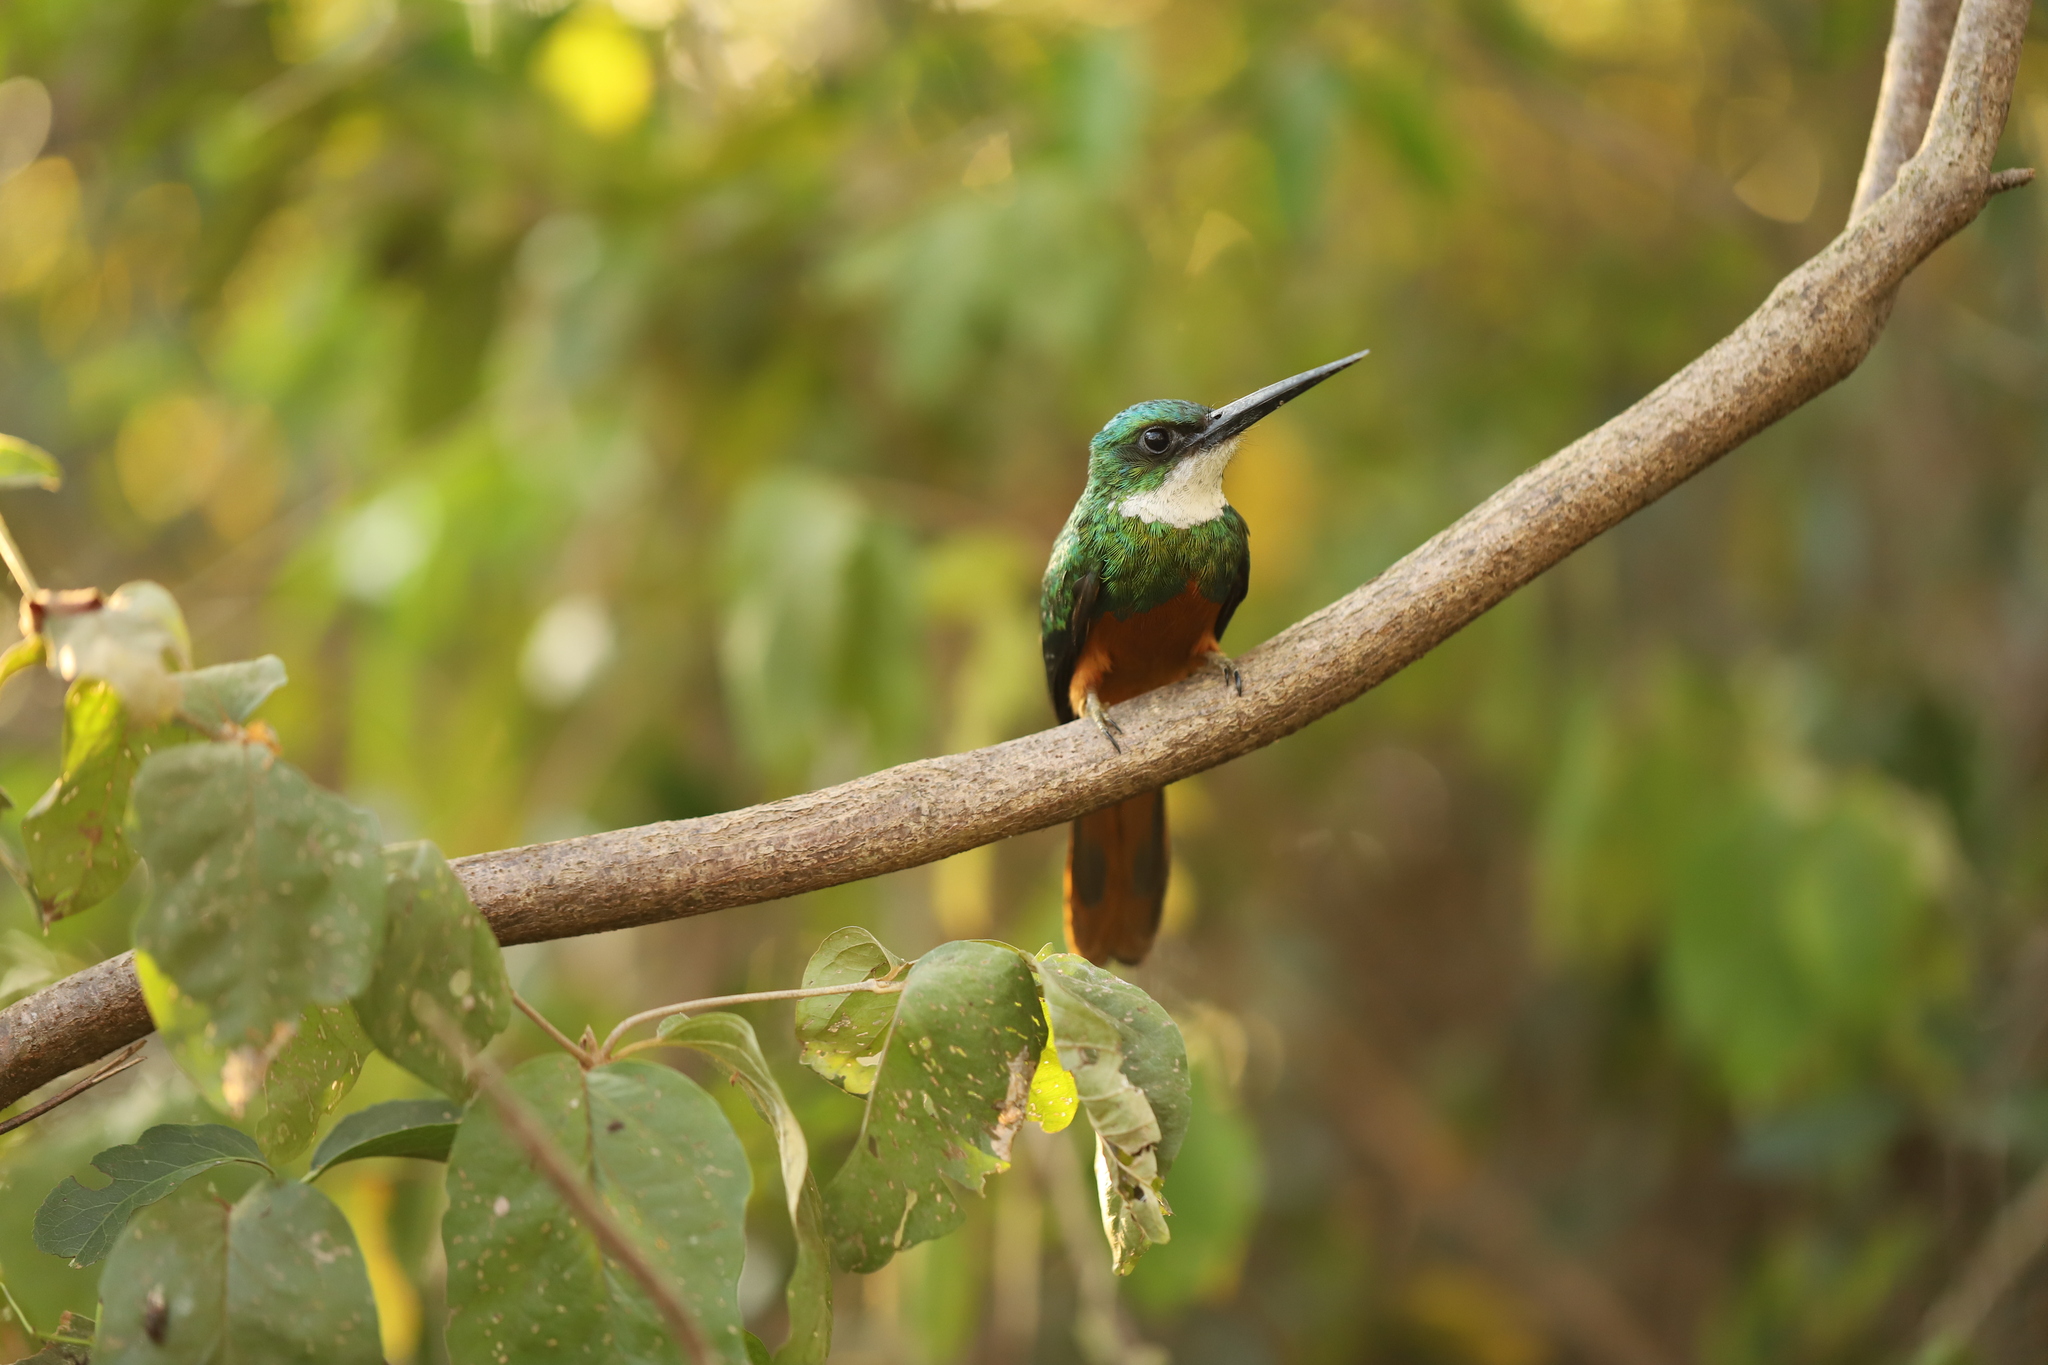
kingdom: Animalia
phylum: Chordata
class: Aves
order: Piciformes
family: Galbulidae
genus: Galbula
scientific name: Galbula ruficauda
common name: Rufous-tailed jacamar
